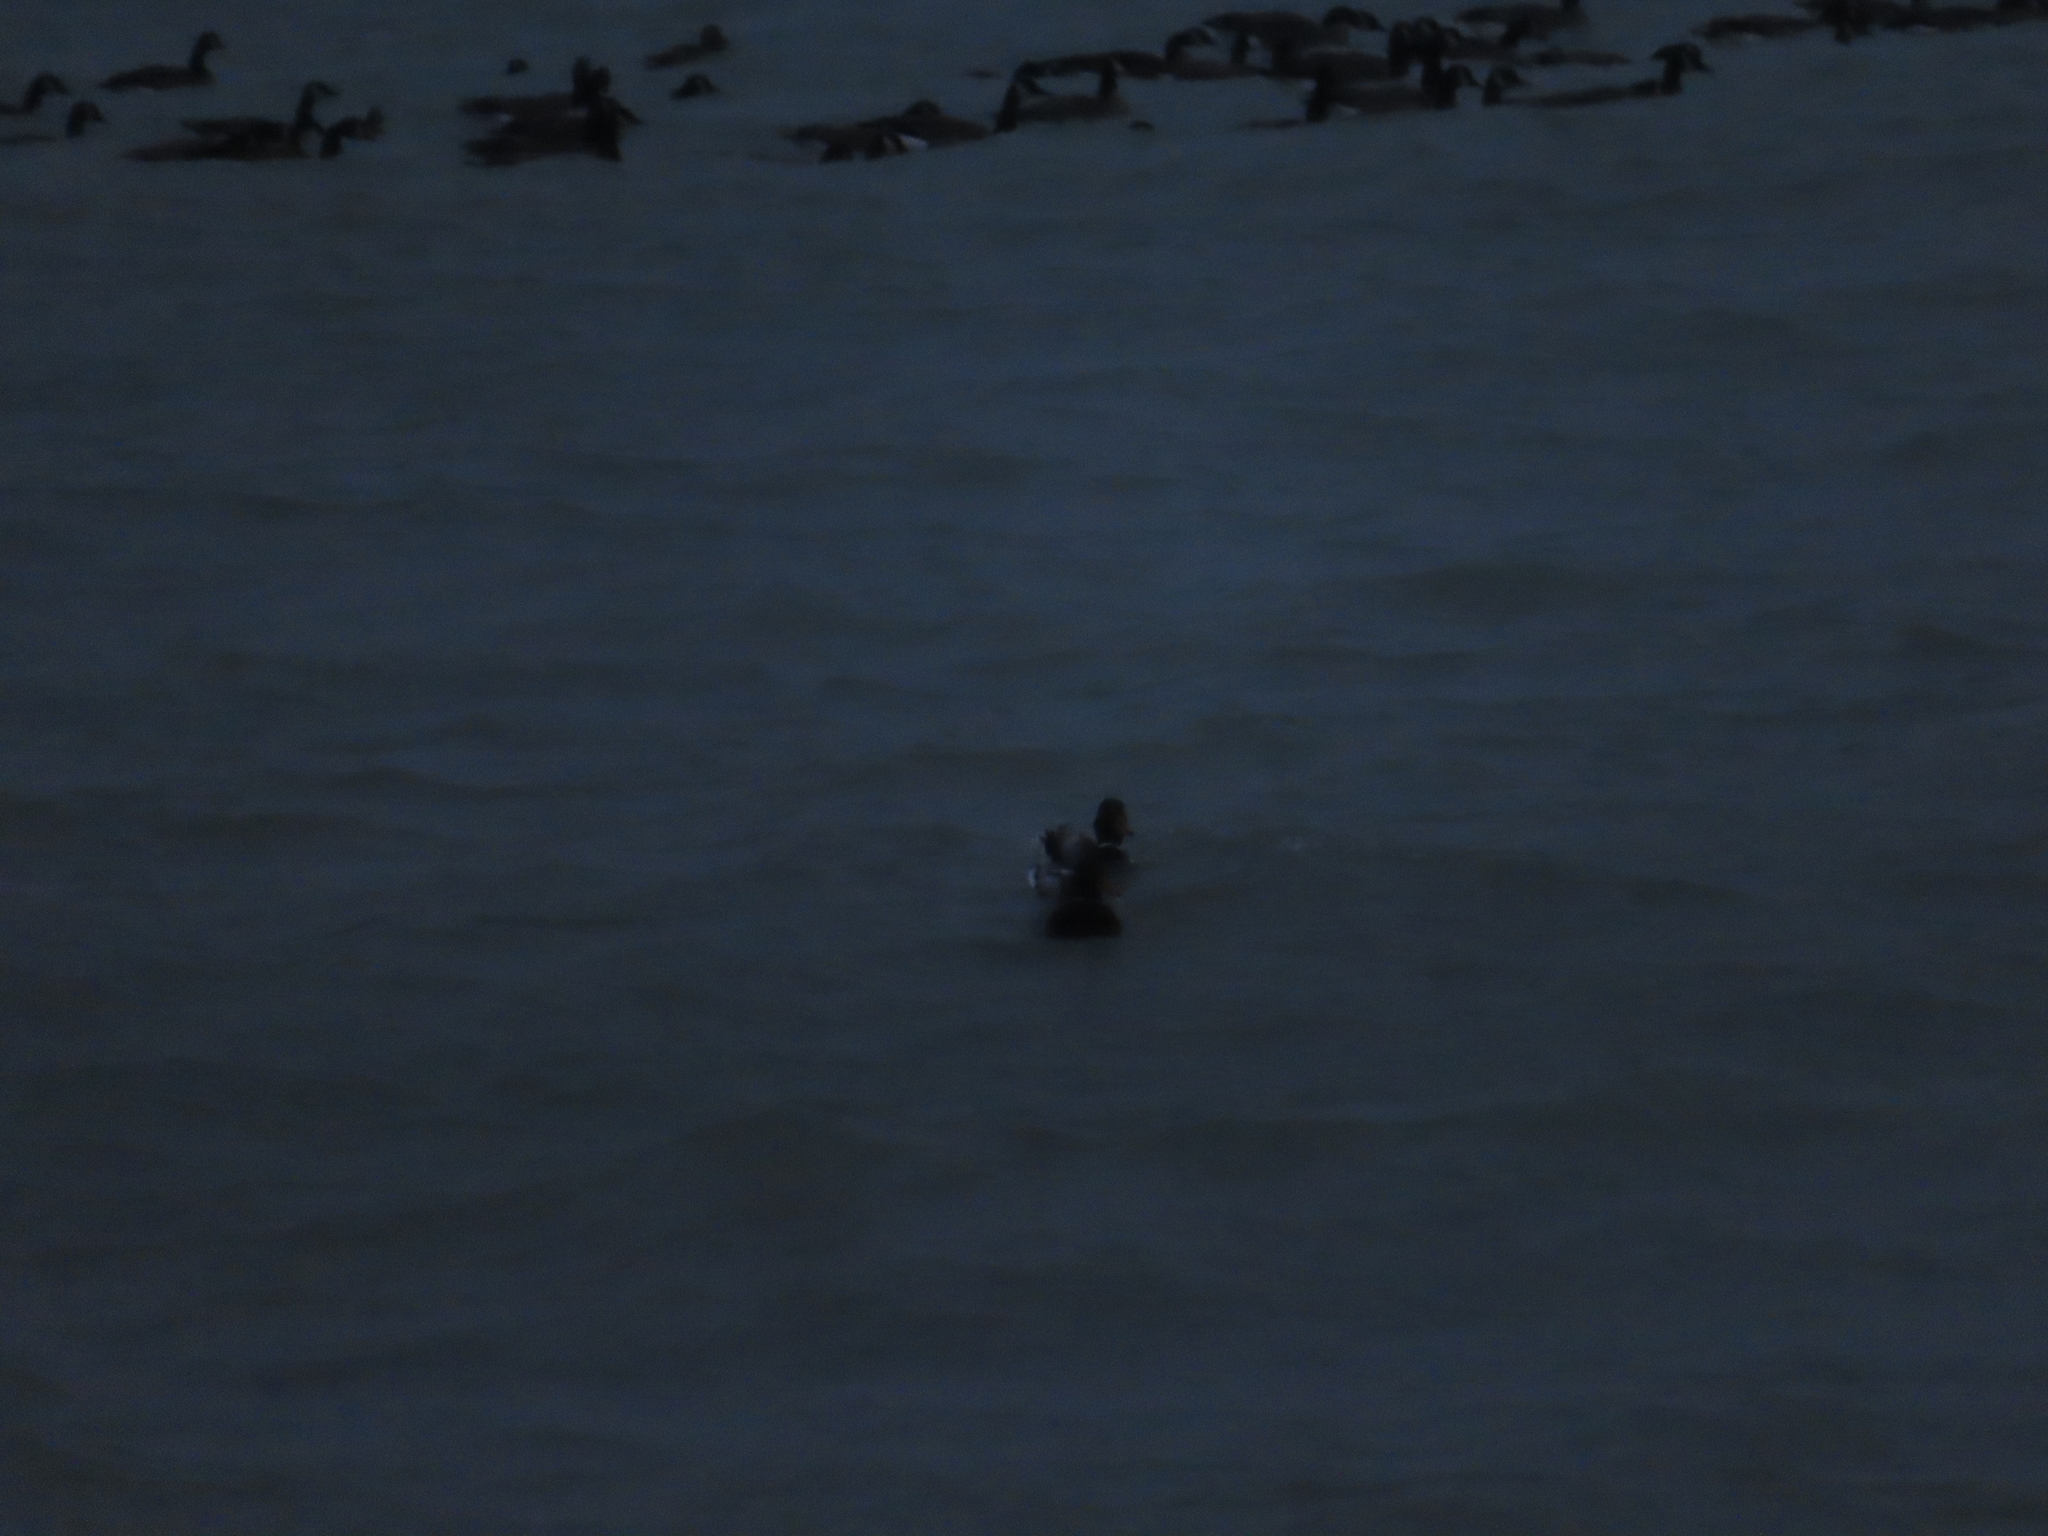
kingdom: Animalia
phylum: Chordata
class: Aves
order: Anseriformes
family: Anatidae
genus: Anas
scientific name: Anas platyrhynchos
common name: Mallard
